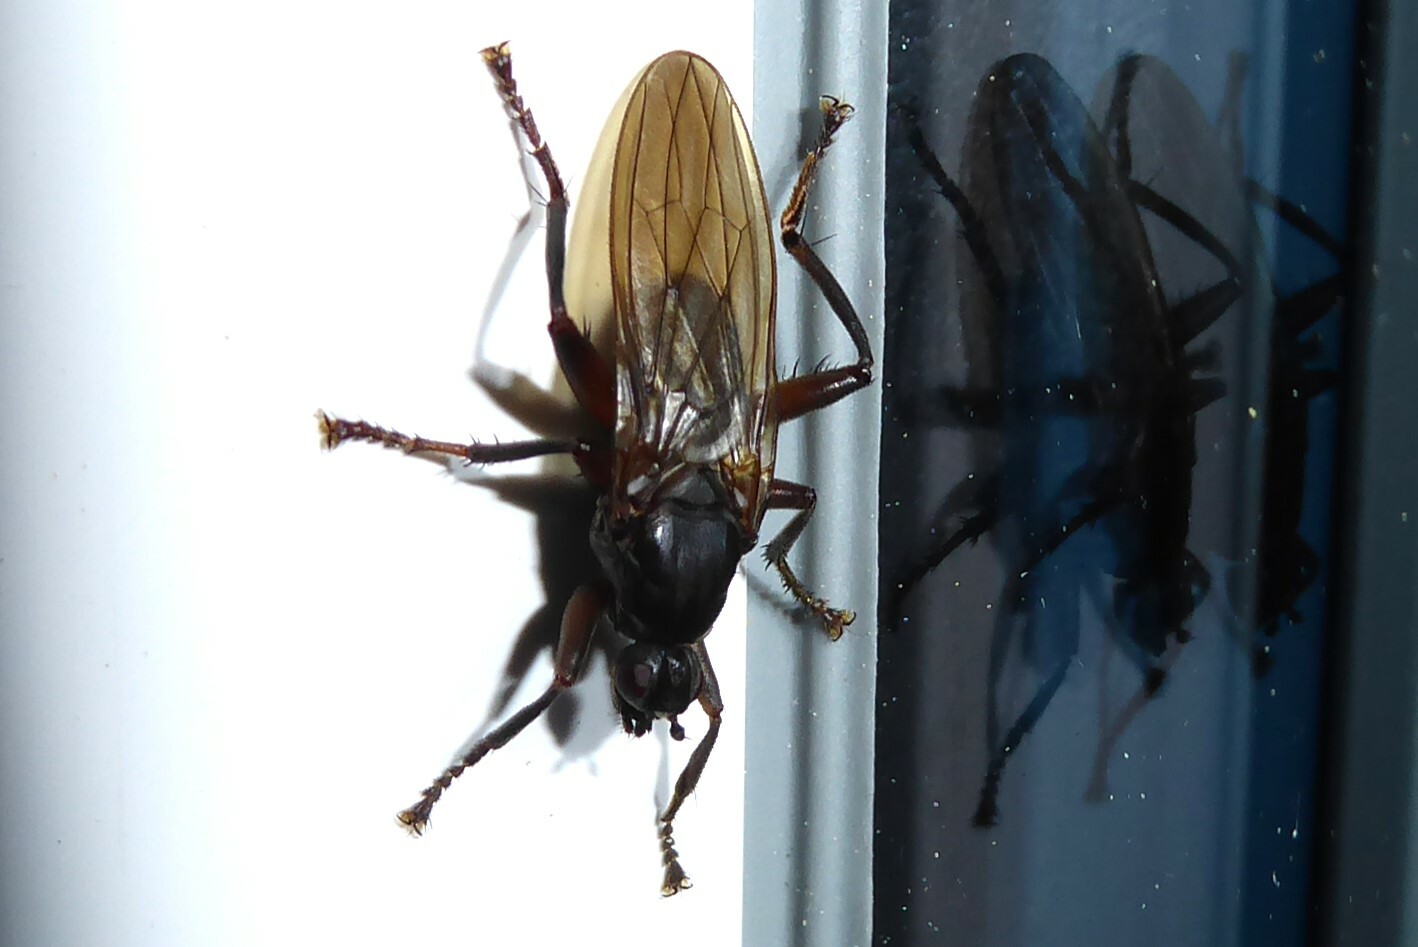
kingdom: Animalia
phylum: Arthropoda
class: Insecta
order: Diptera
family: Coelopidae
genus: Baeopterus
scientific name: Baeopterus philpotti
